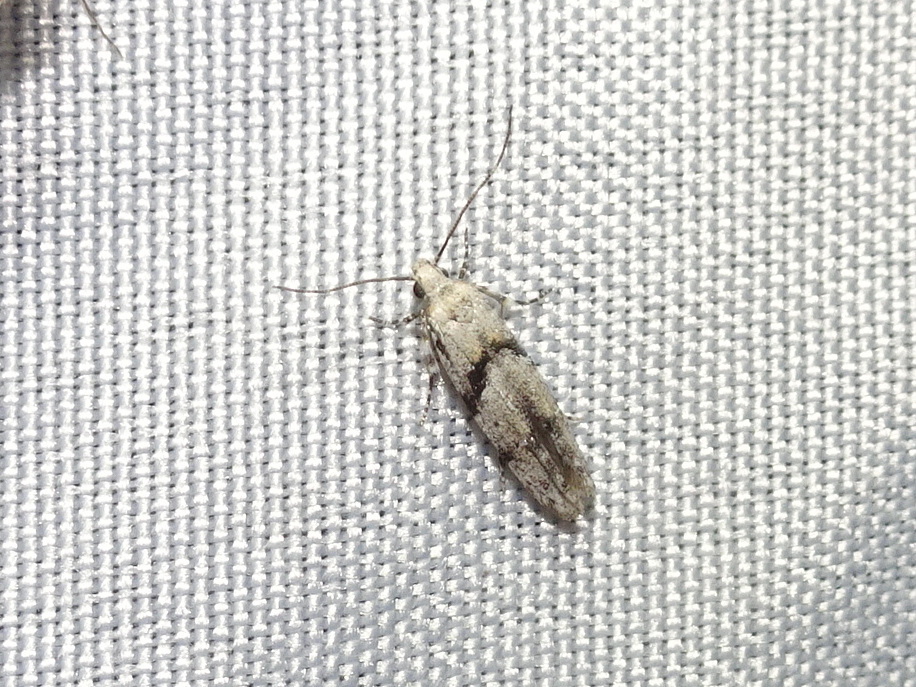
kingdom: Animalia
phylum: Arthropoda
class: Insecta
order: Lepidoptera
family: Gelechiidae
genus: Arogalea
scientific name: Arogalea cristifasciella
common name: White stripe-backed moth
